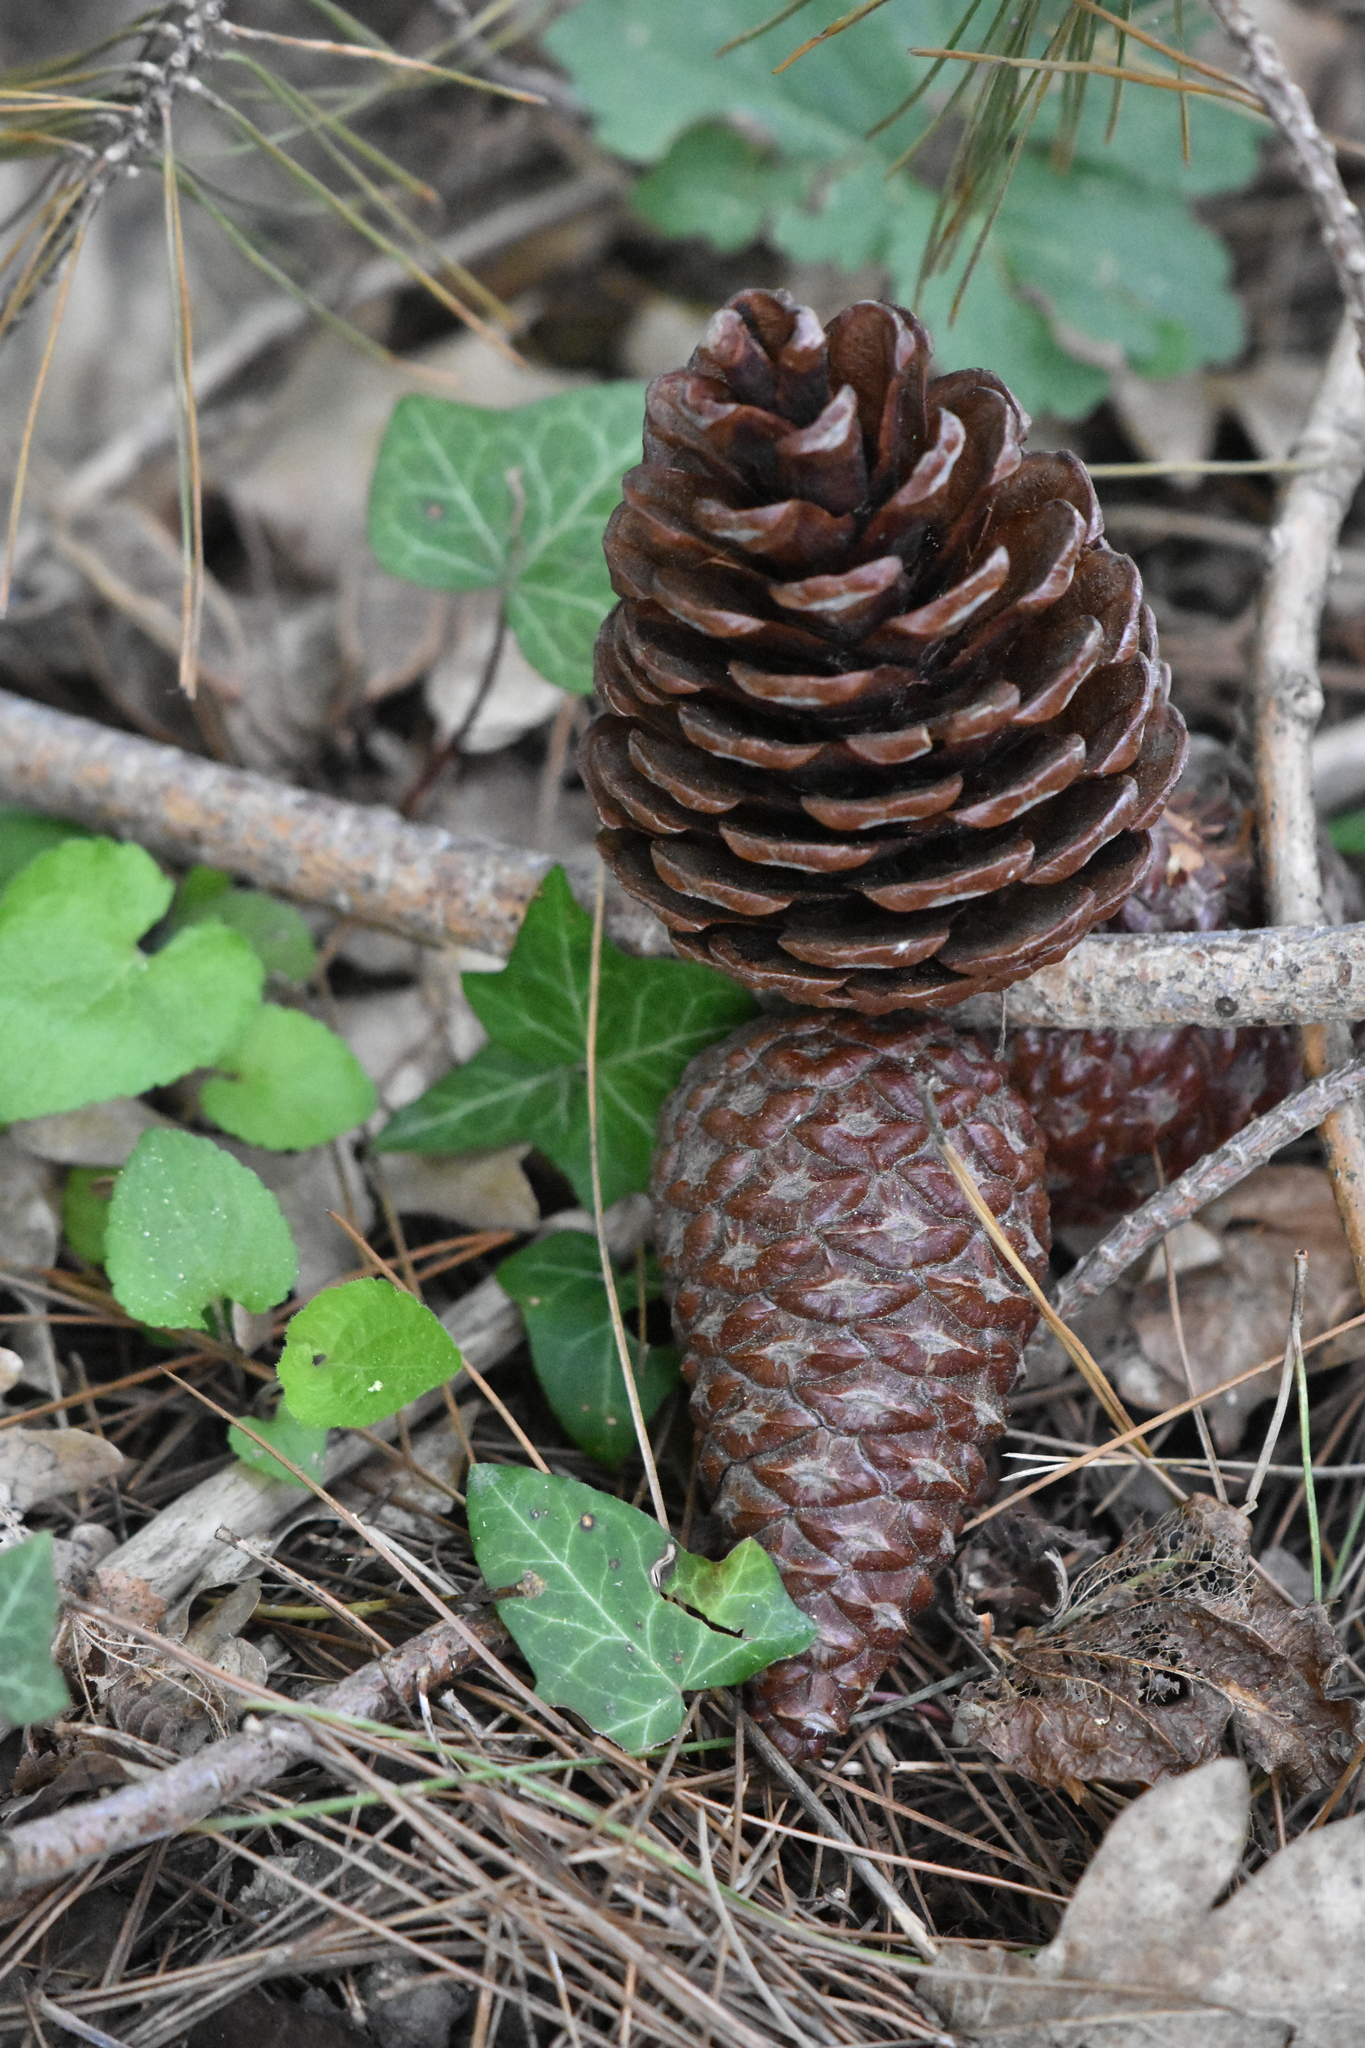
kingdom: Plantae
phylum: Tracheophyta
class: Pinopsida
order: Pinales
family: Pinaceae
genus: Pinus
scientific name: Pinus brutia
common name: Turkish pine
